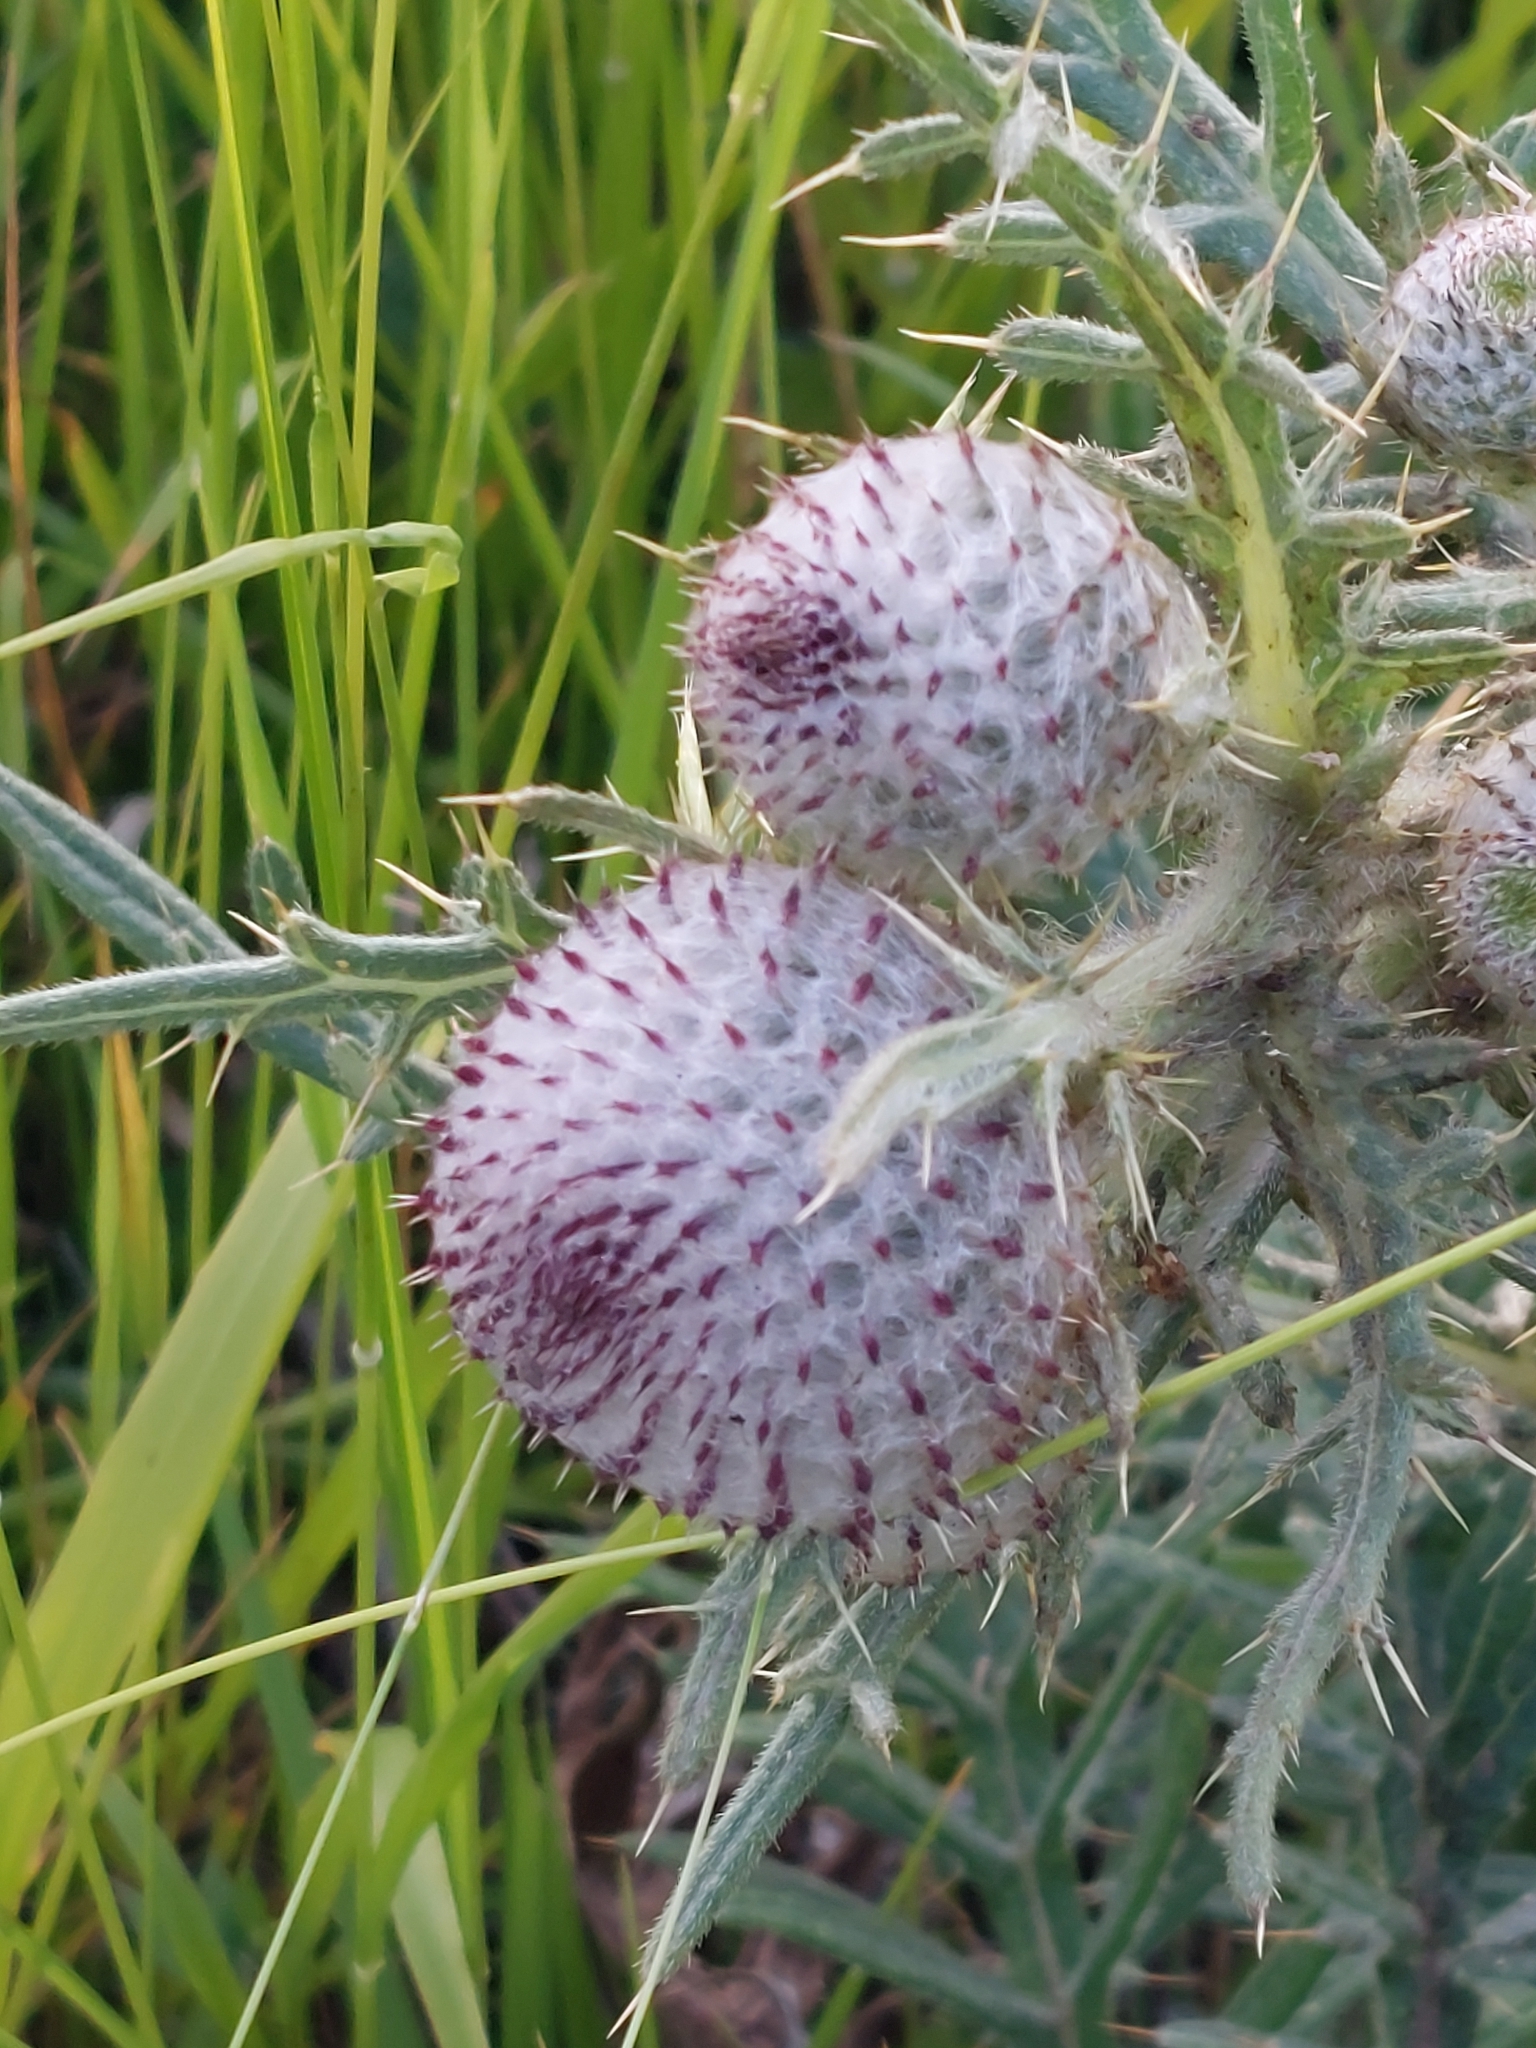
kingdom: Plantae
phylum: Tracheophyta
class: Magnoliopsida
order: Asterales
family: Asteraceae
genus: Lophiolepis
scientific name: Lophiolepis eriophora
